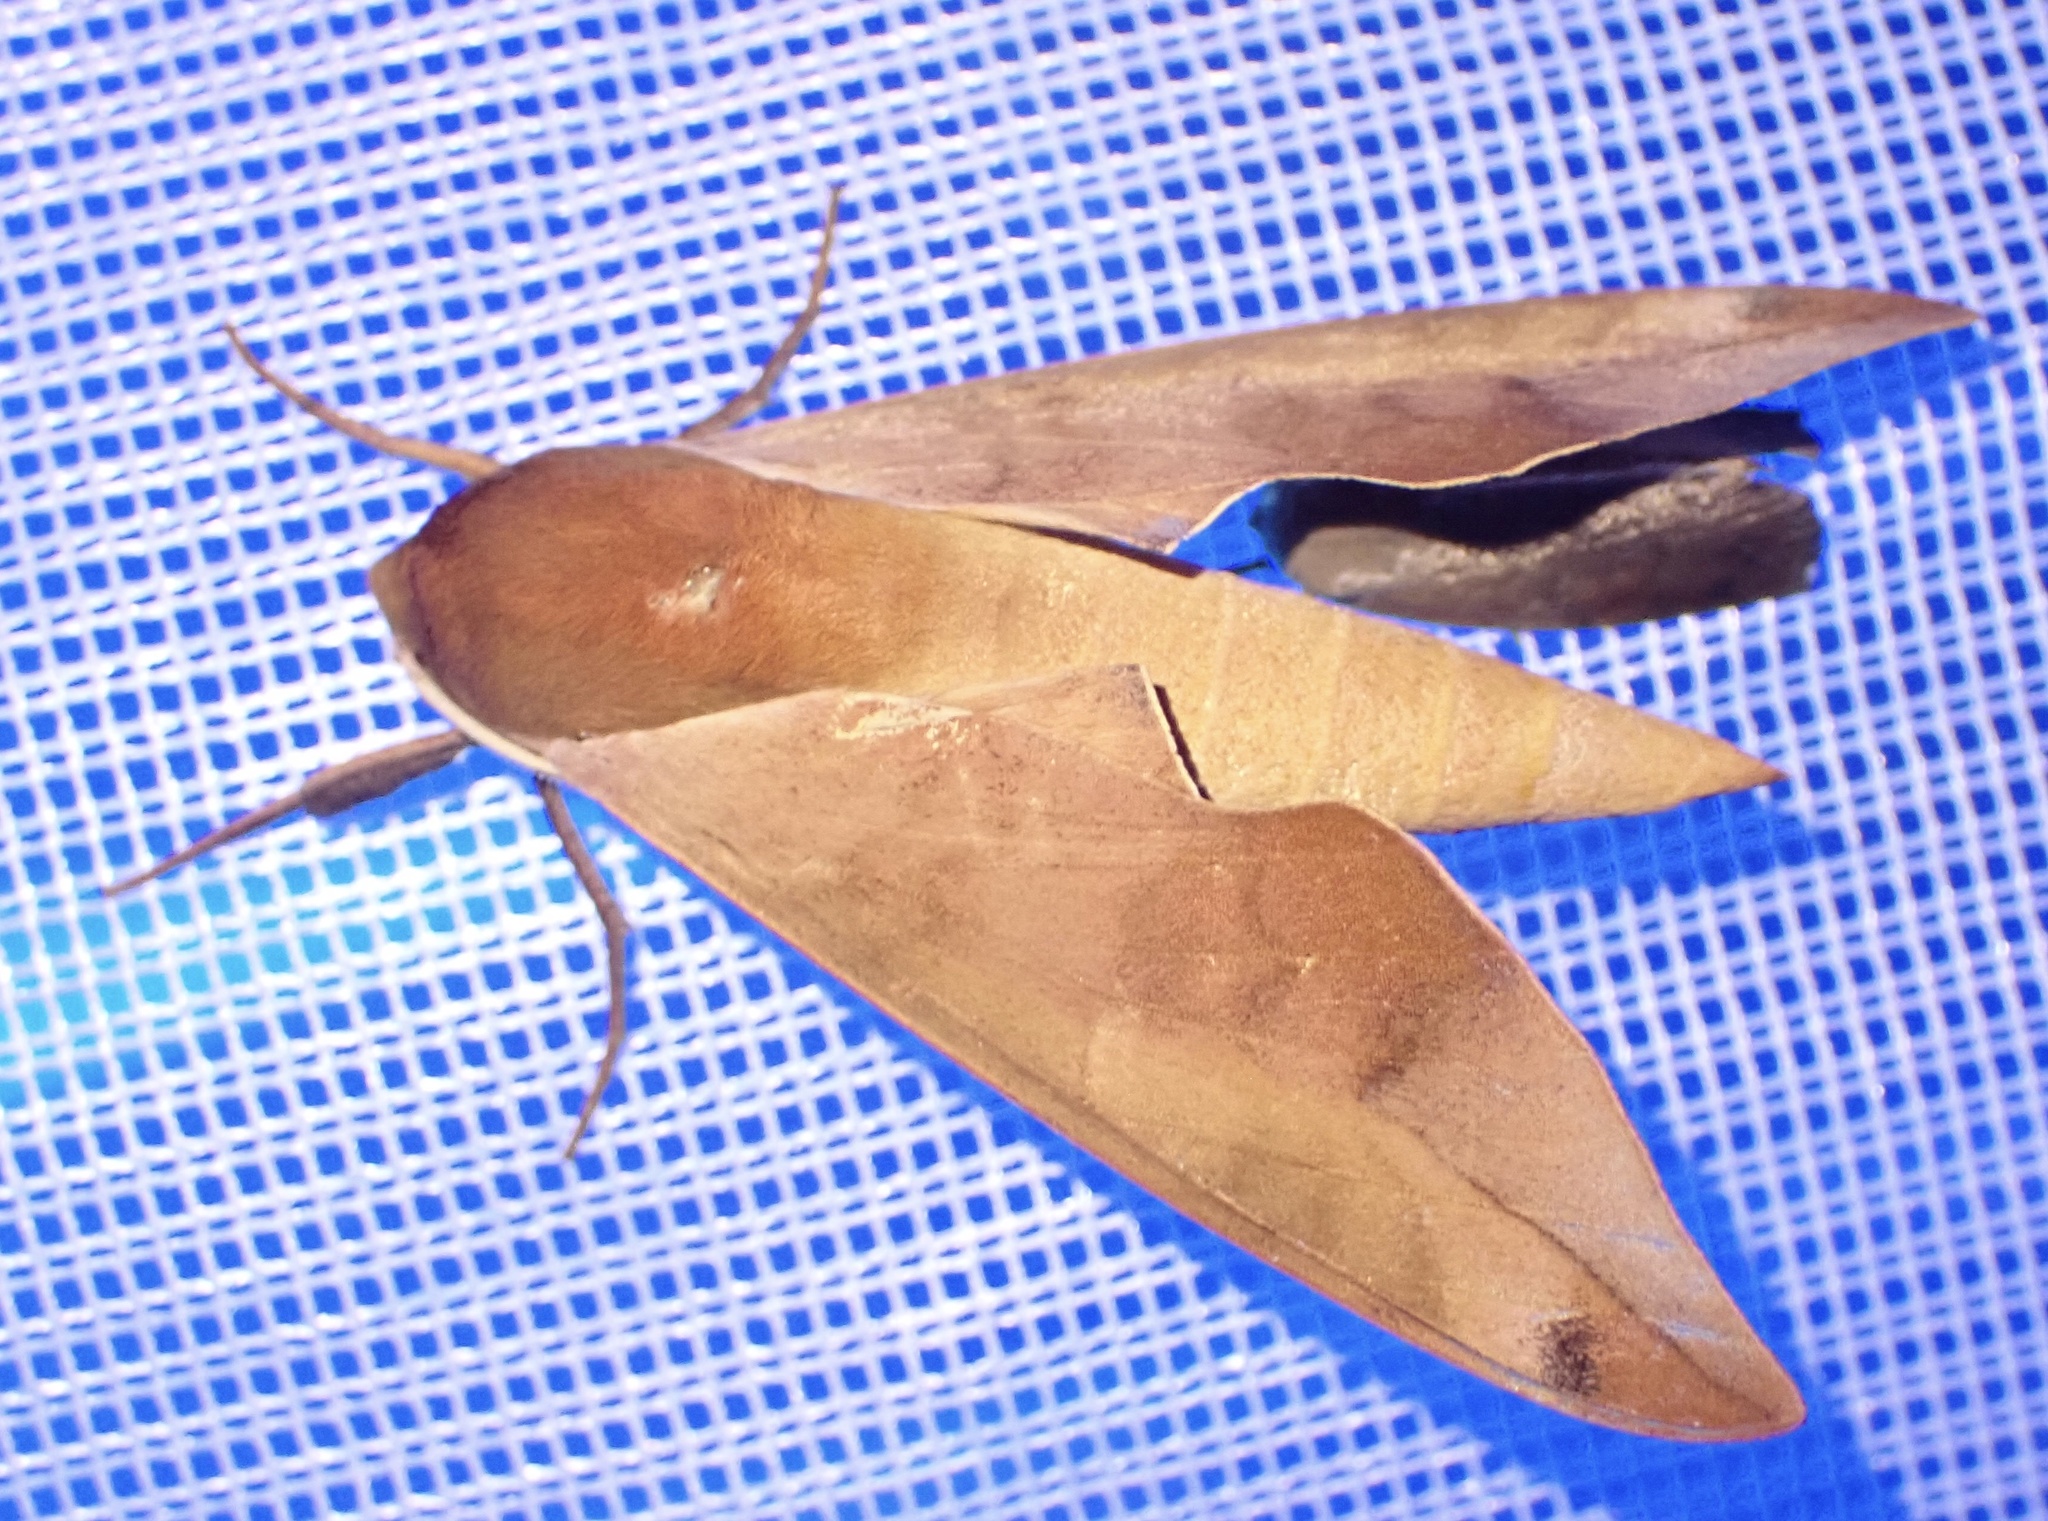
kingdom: Animalia
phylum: Arthropoda
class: Insecta
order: Lepidoptera
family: Sphingidae
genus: Phylloxiphia
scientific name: Phylloxiphia vicina
